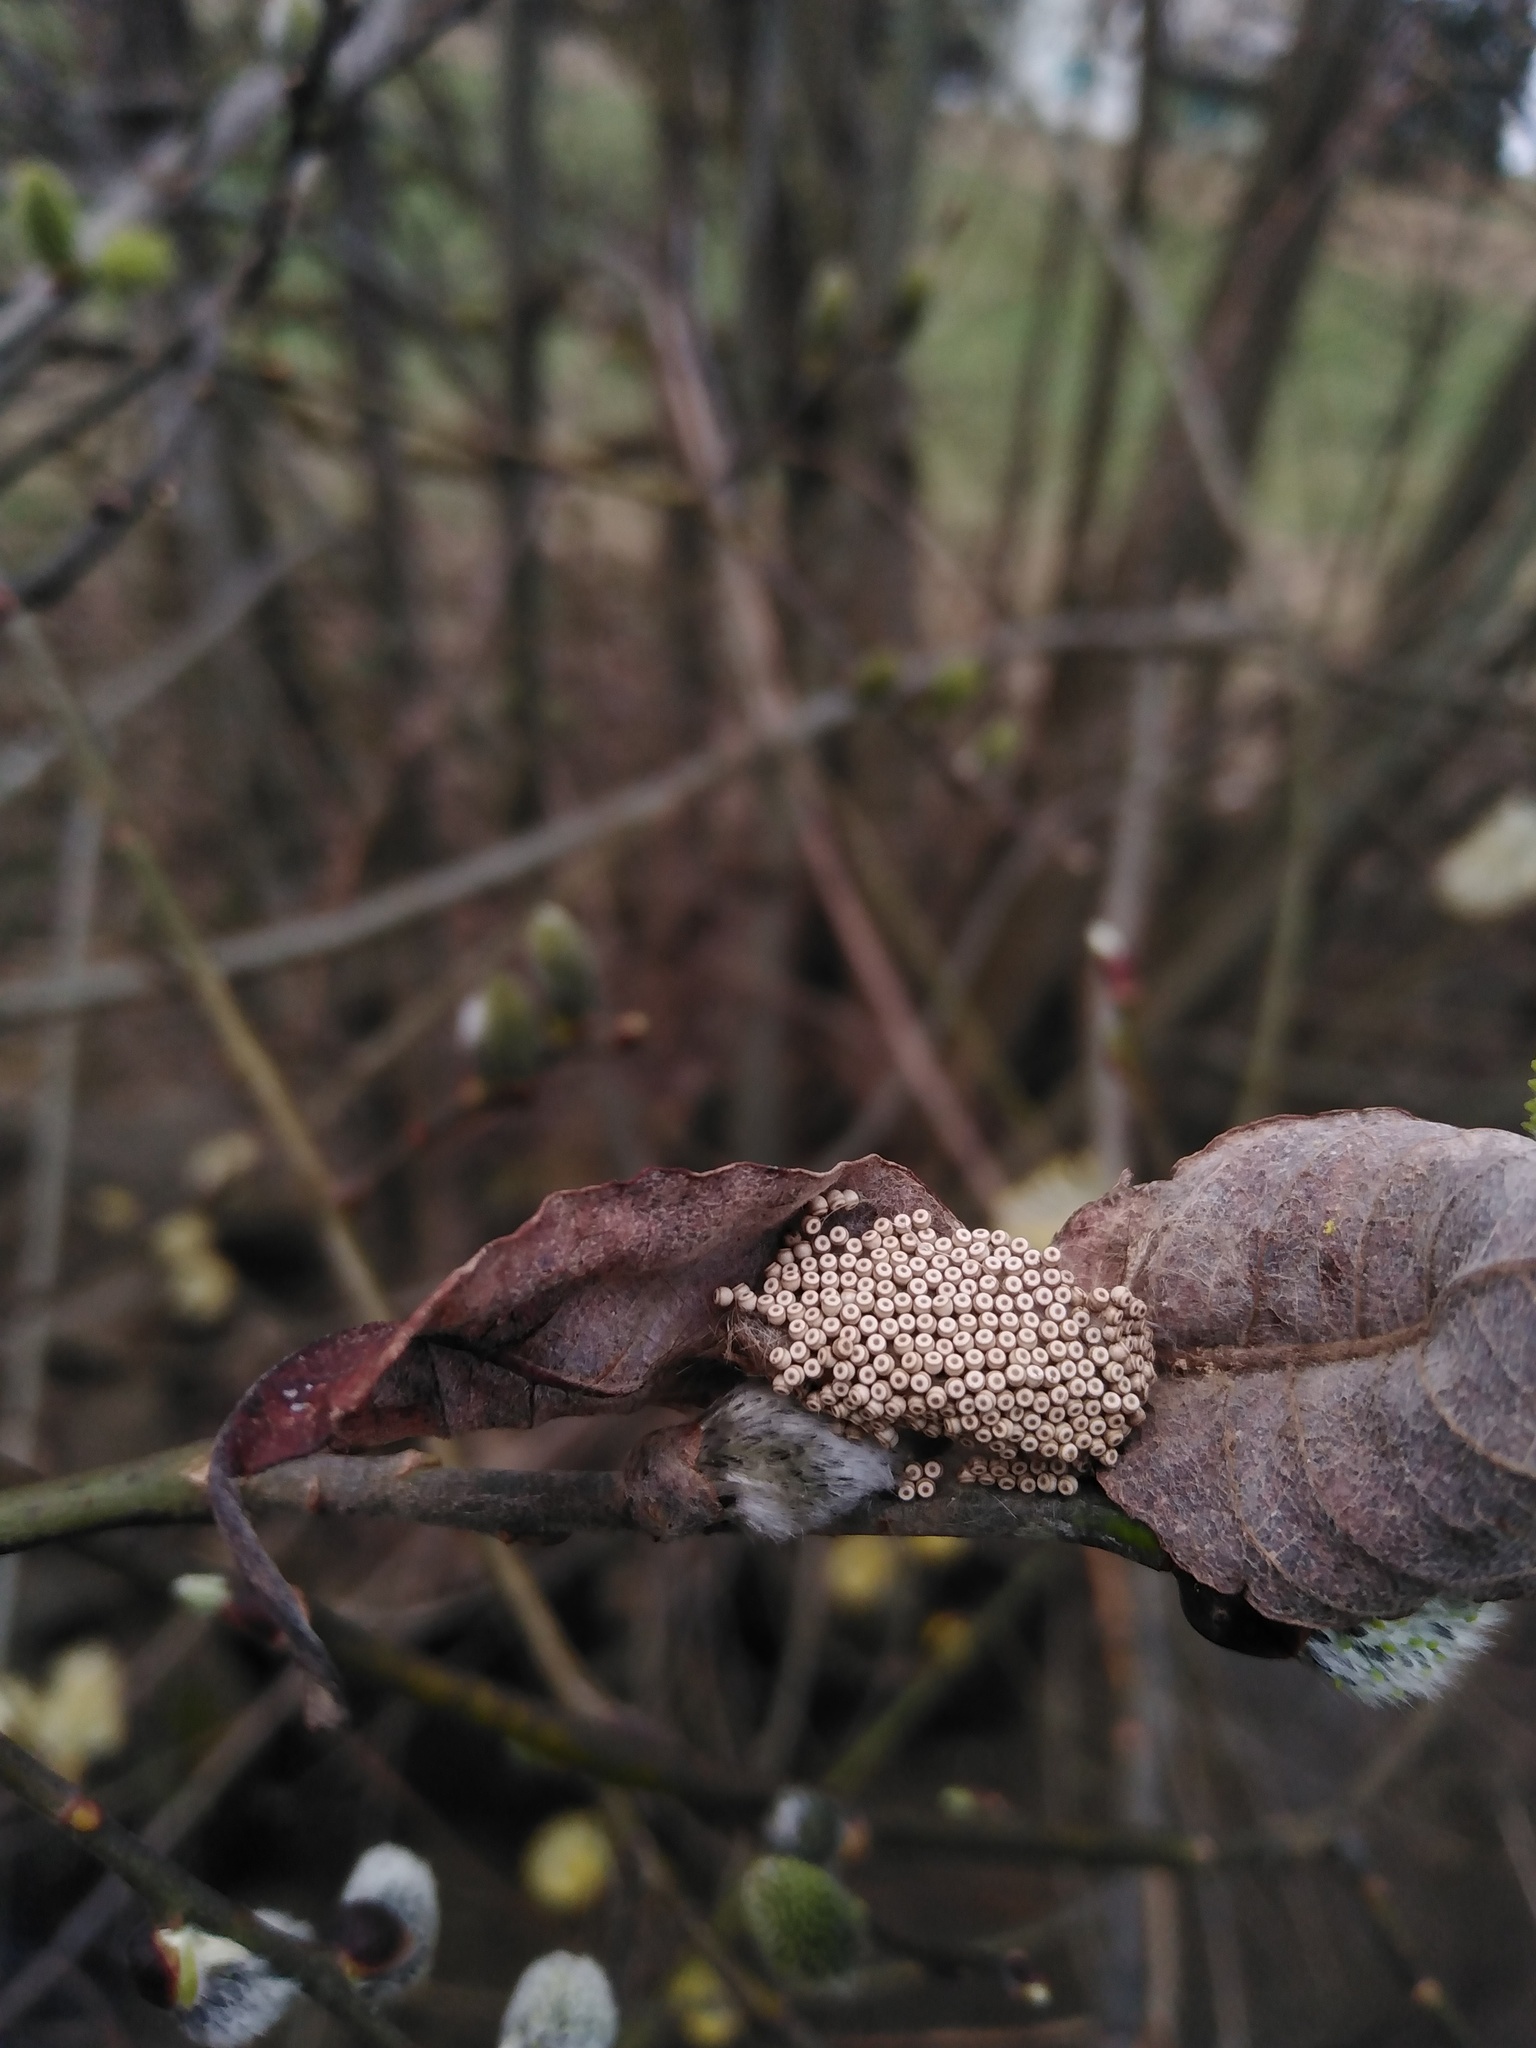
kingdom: Animalia
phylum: Arthropoda
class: Insecta
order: Lepidoptera
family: Erebidae
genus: Orgyia
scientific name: Orgyia antiqua
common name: Vapourer
